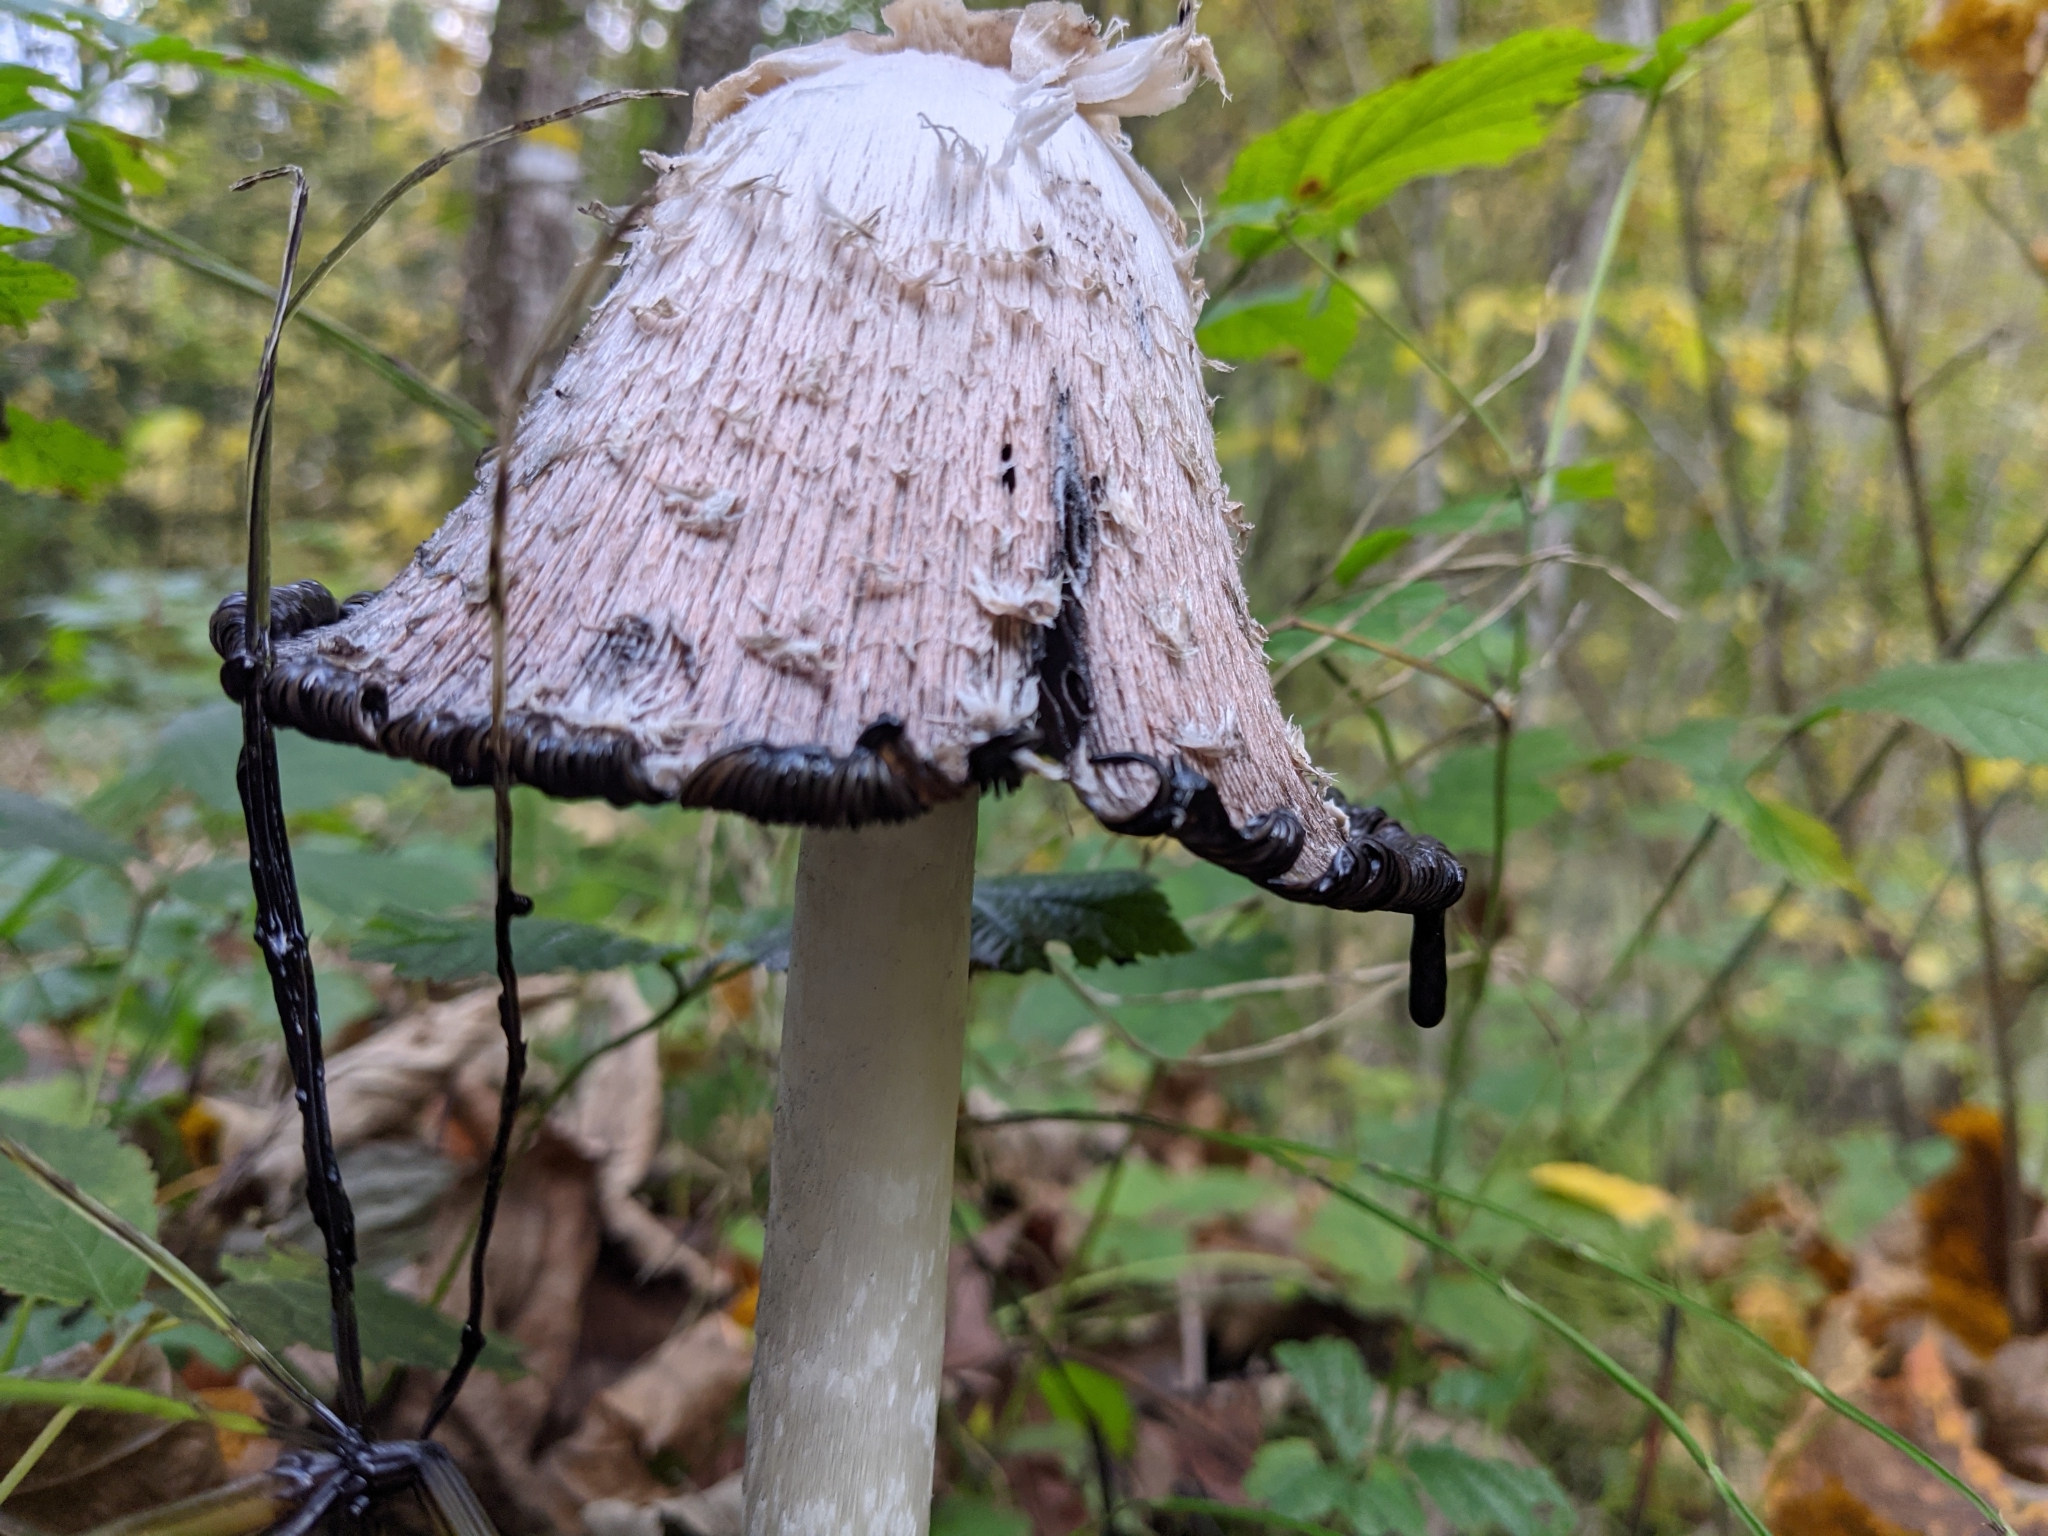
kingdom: Fungi
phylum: Basidiomycota
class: Agaricomycetes
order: Agaricales
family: Agaricaceae
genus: Coprinus
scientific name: Coprinus comatus
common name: Lawyer's wig
